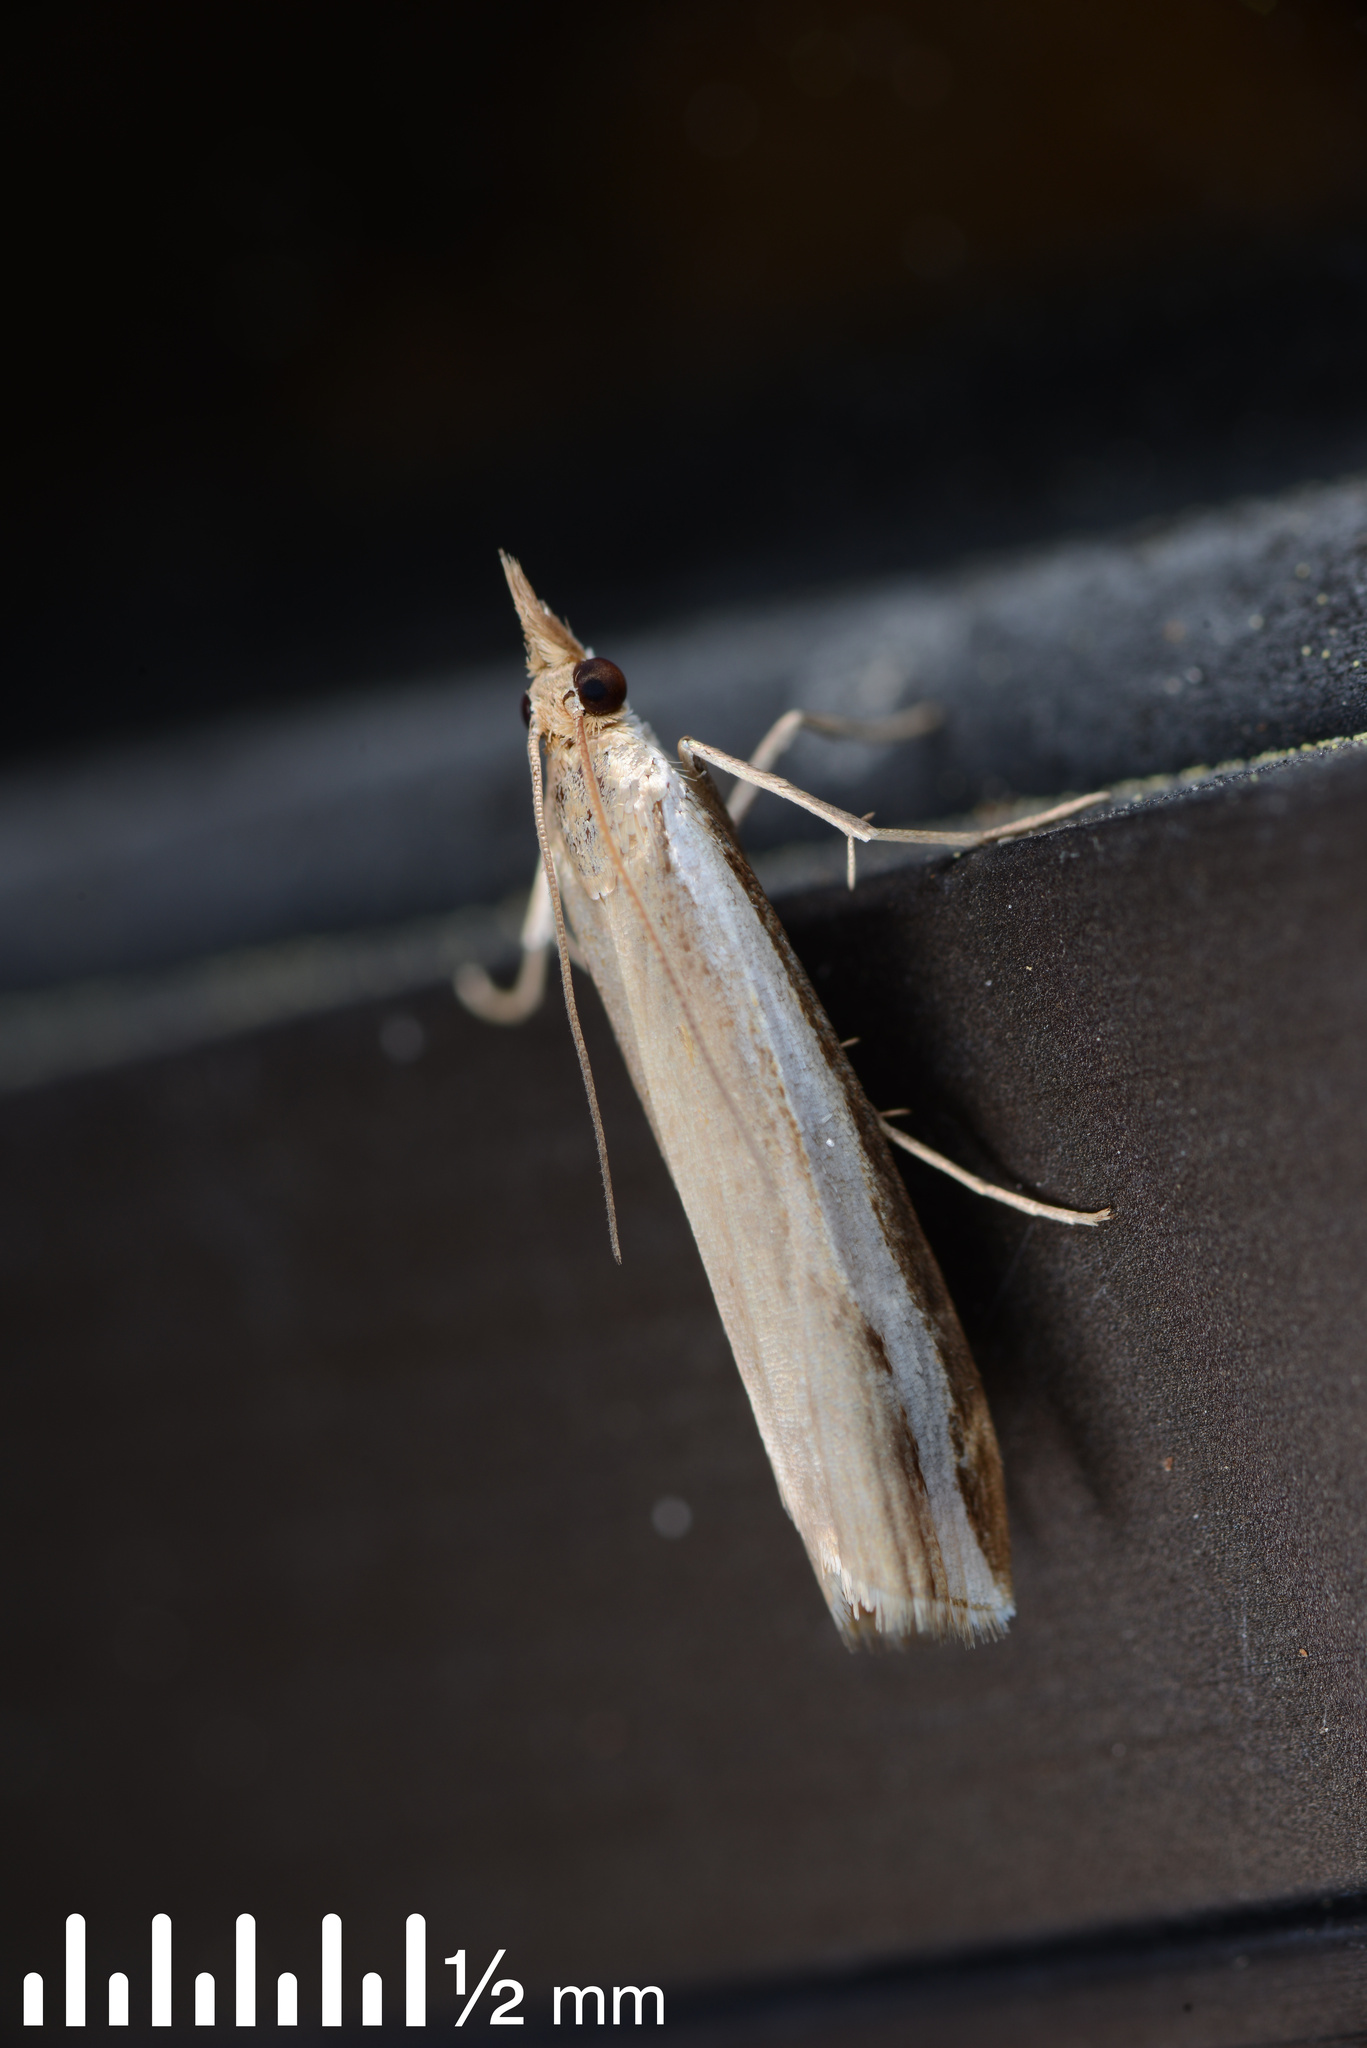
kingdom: Animalia
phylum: Arthropoda
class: Insecta
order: Lepidoptera
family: Crambidae
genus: Orocrambus
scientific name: Orocrambus flexuosellus
